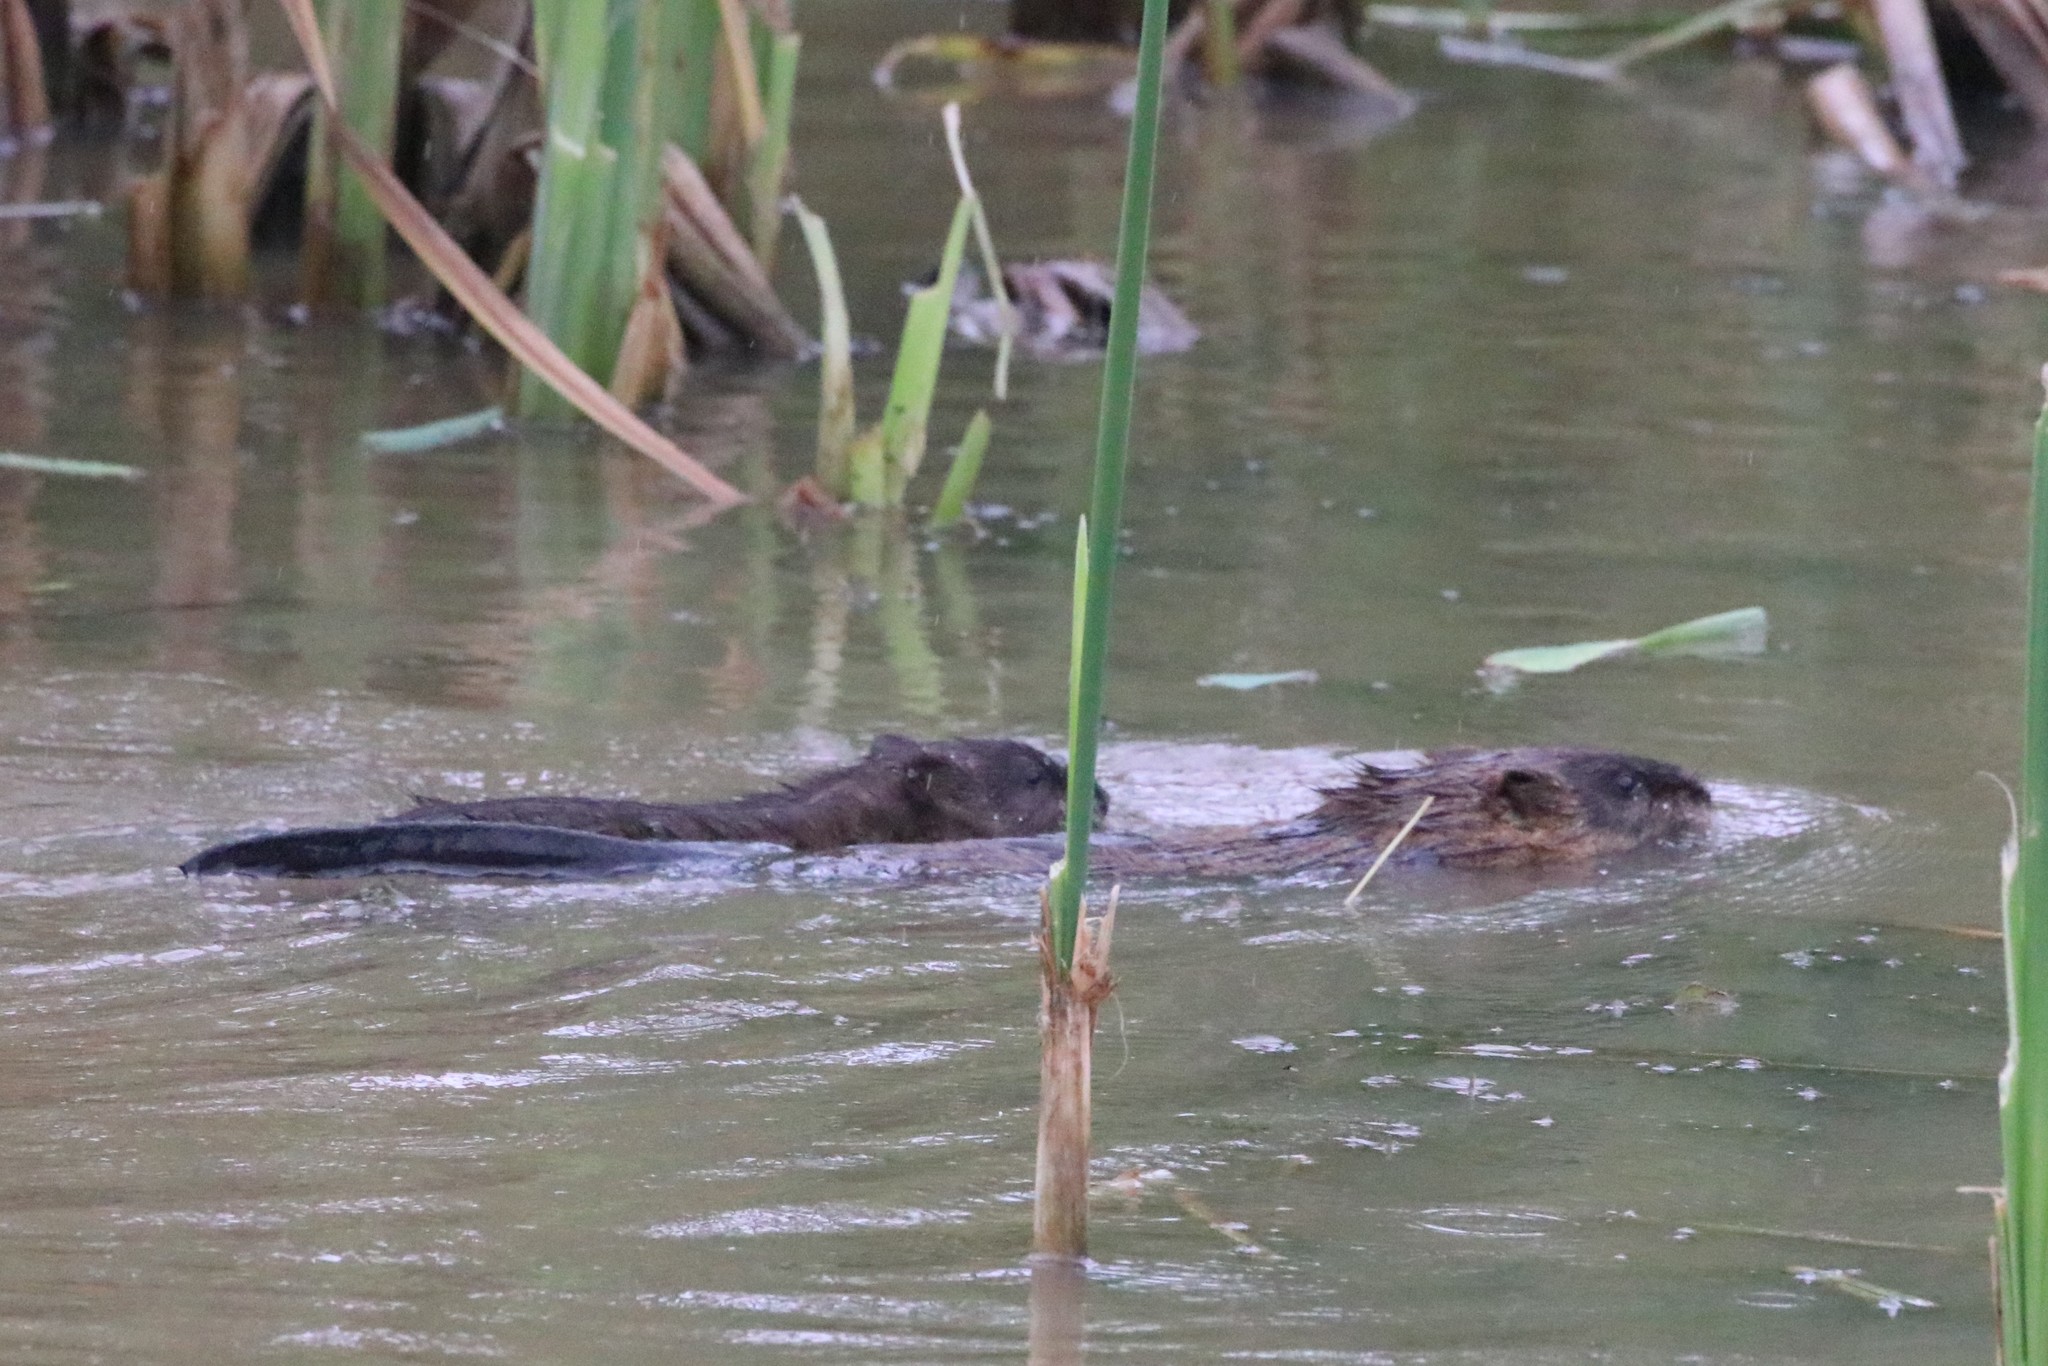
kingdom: Animalia
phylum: Chordata
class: Mammalia
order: Rodentia
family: Cricetidae
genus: Ondatra
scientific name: Ondatra zibethicus
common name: Muskrat
